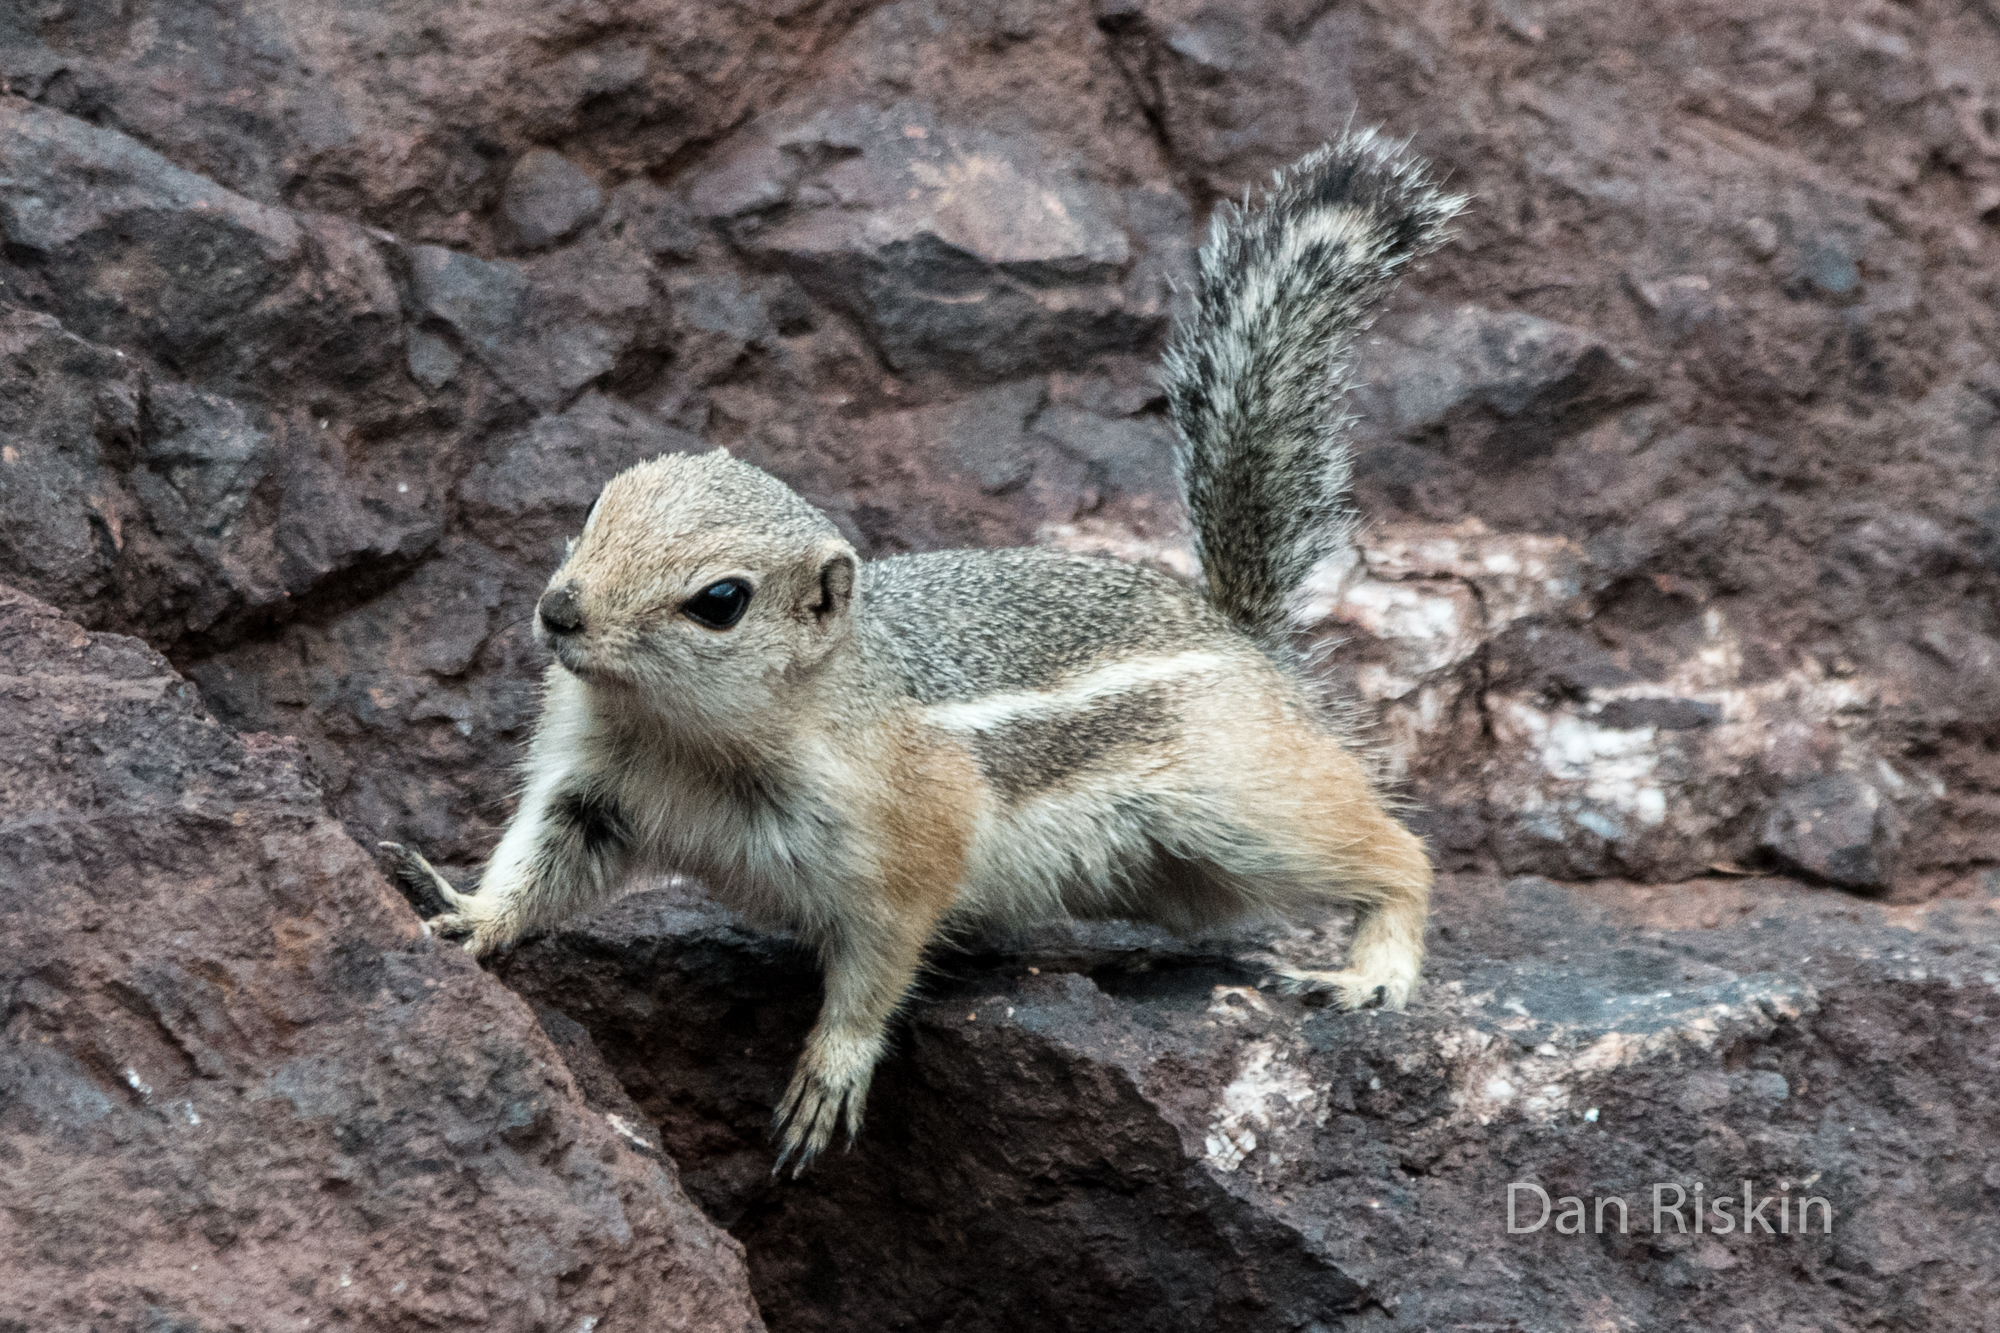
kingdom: Animalia
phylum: Chordata
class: Mammalia
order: Rodentia
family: Sciuridae
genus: Ammospermophilus
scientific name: Ammospermophilus leucurus
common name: White-tailed antelope squirrel
